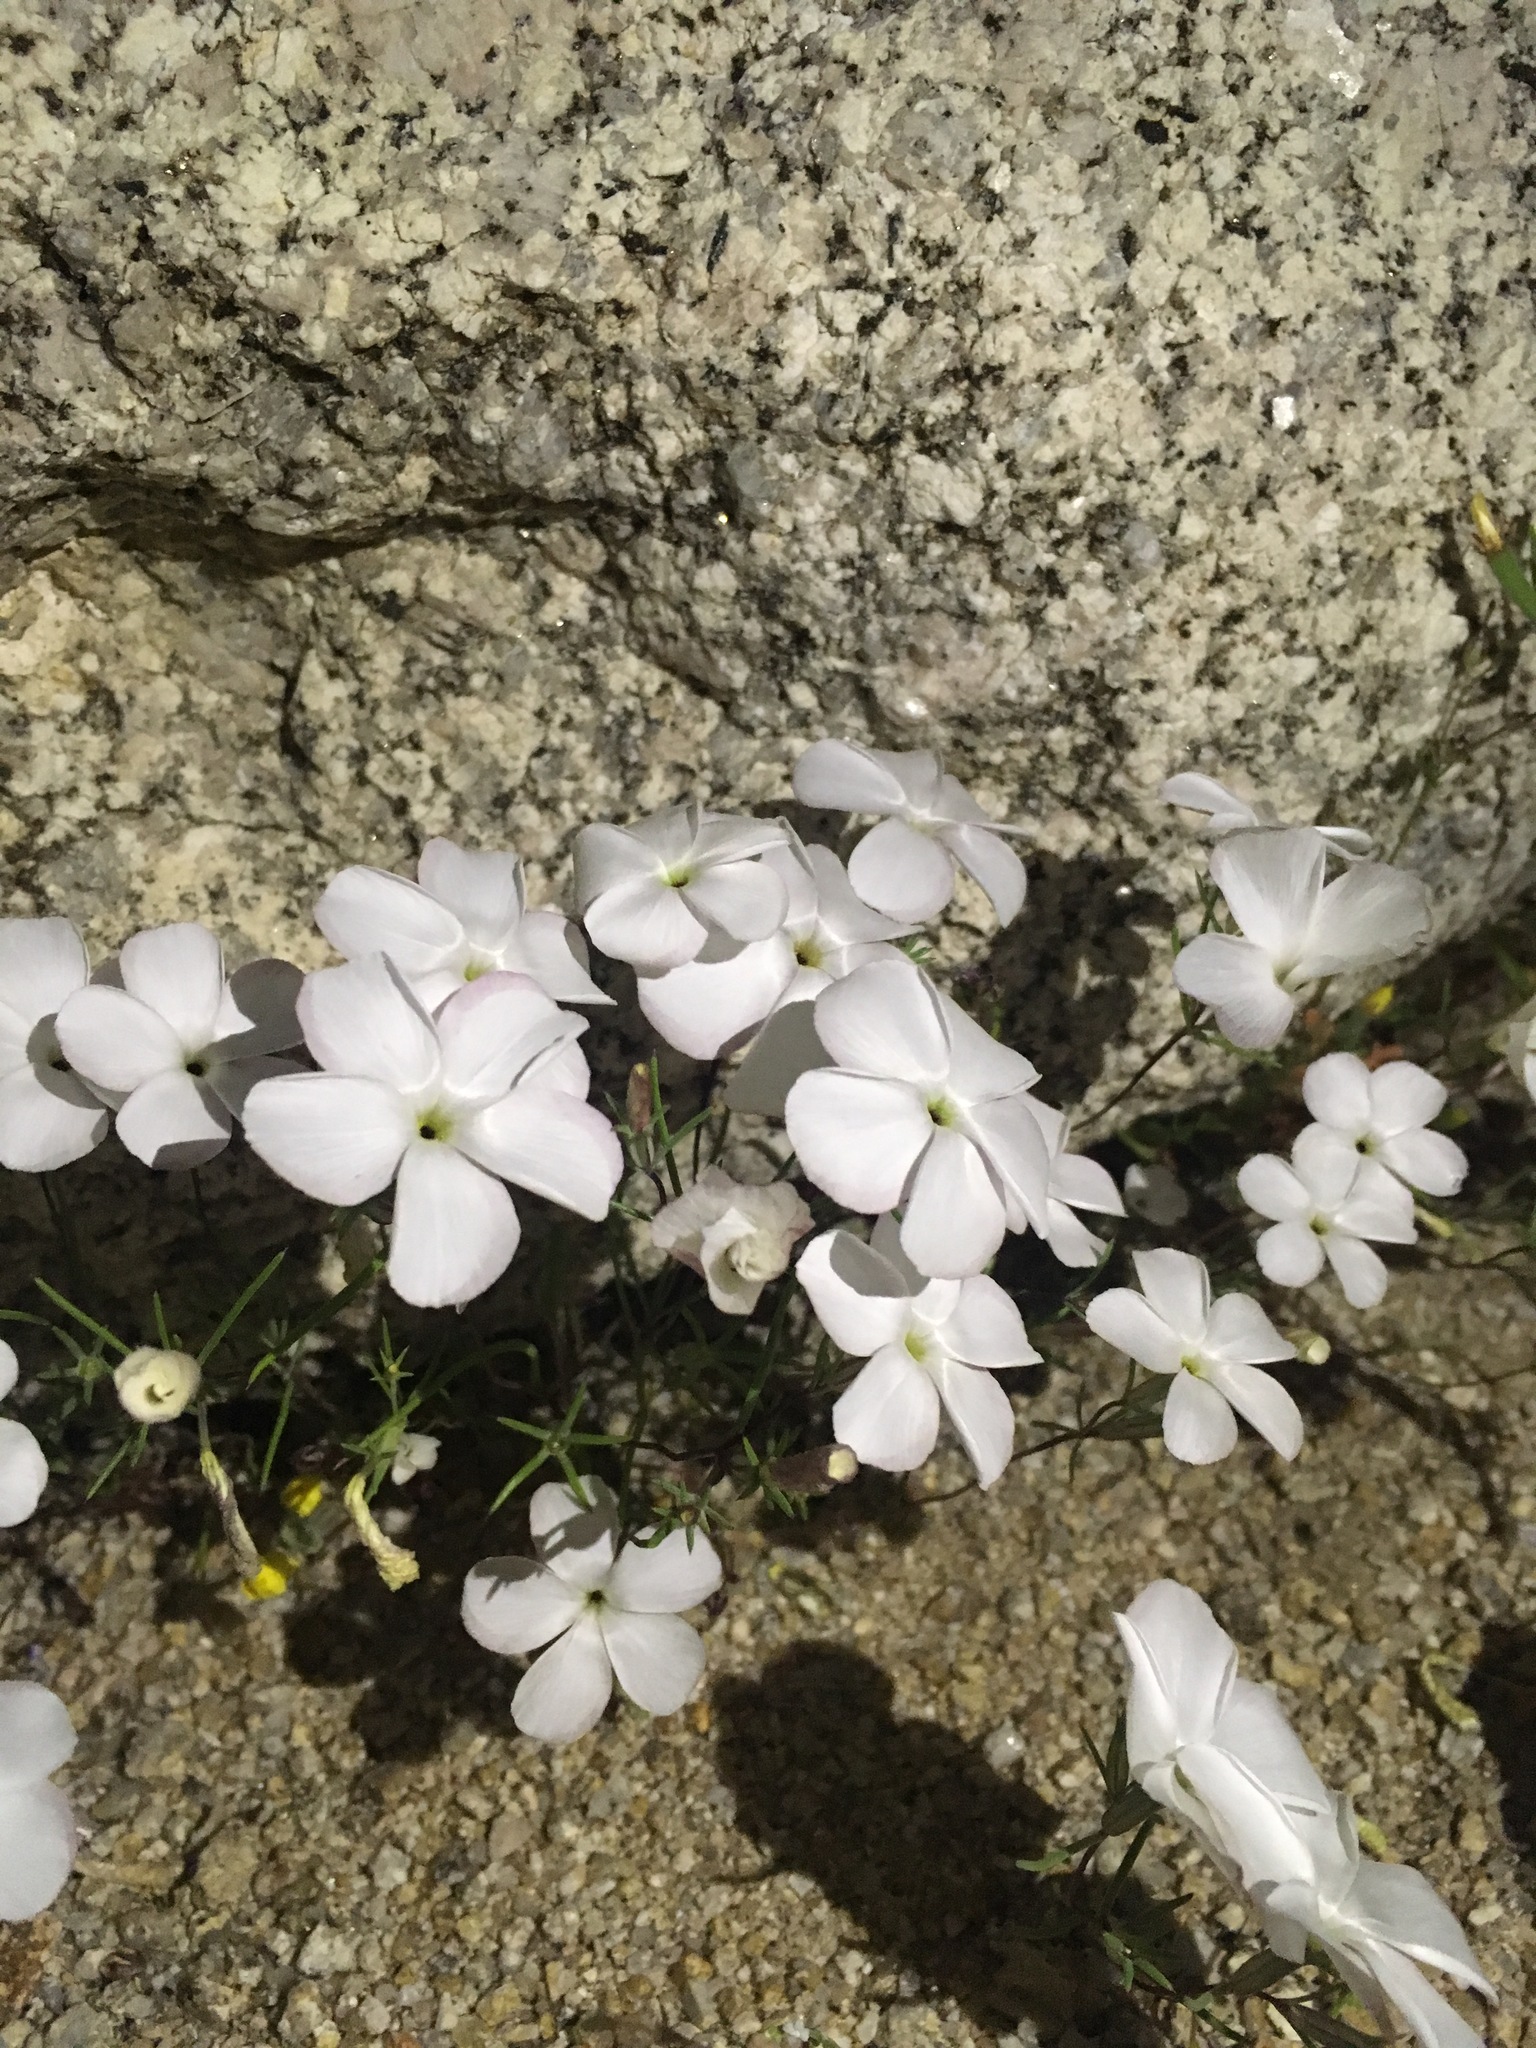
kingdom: Plantae
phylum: Tracheophyta
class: Magnoliopsida
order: Ericales
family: Polemoniaceae
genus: Linanthus
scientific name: Linanthus dichotomus
